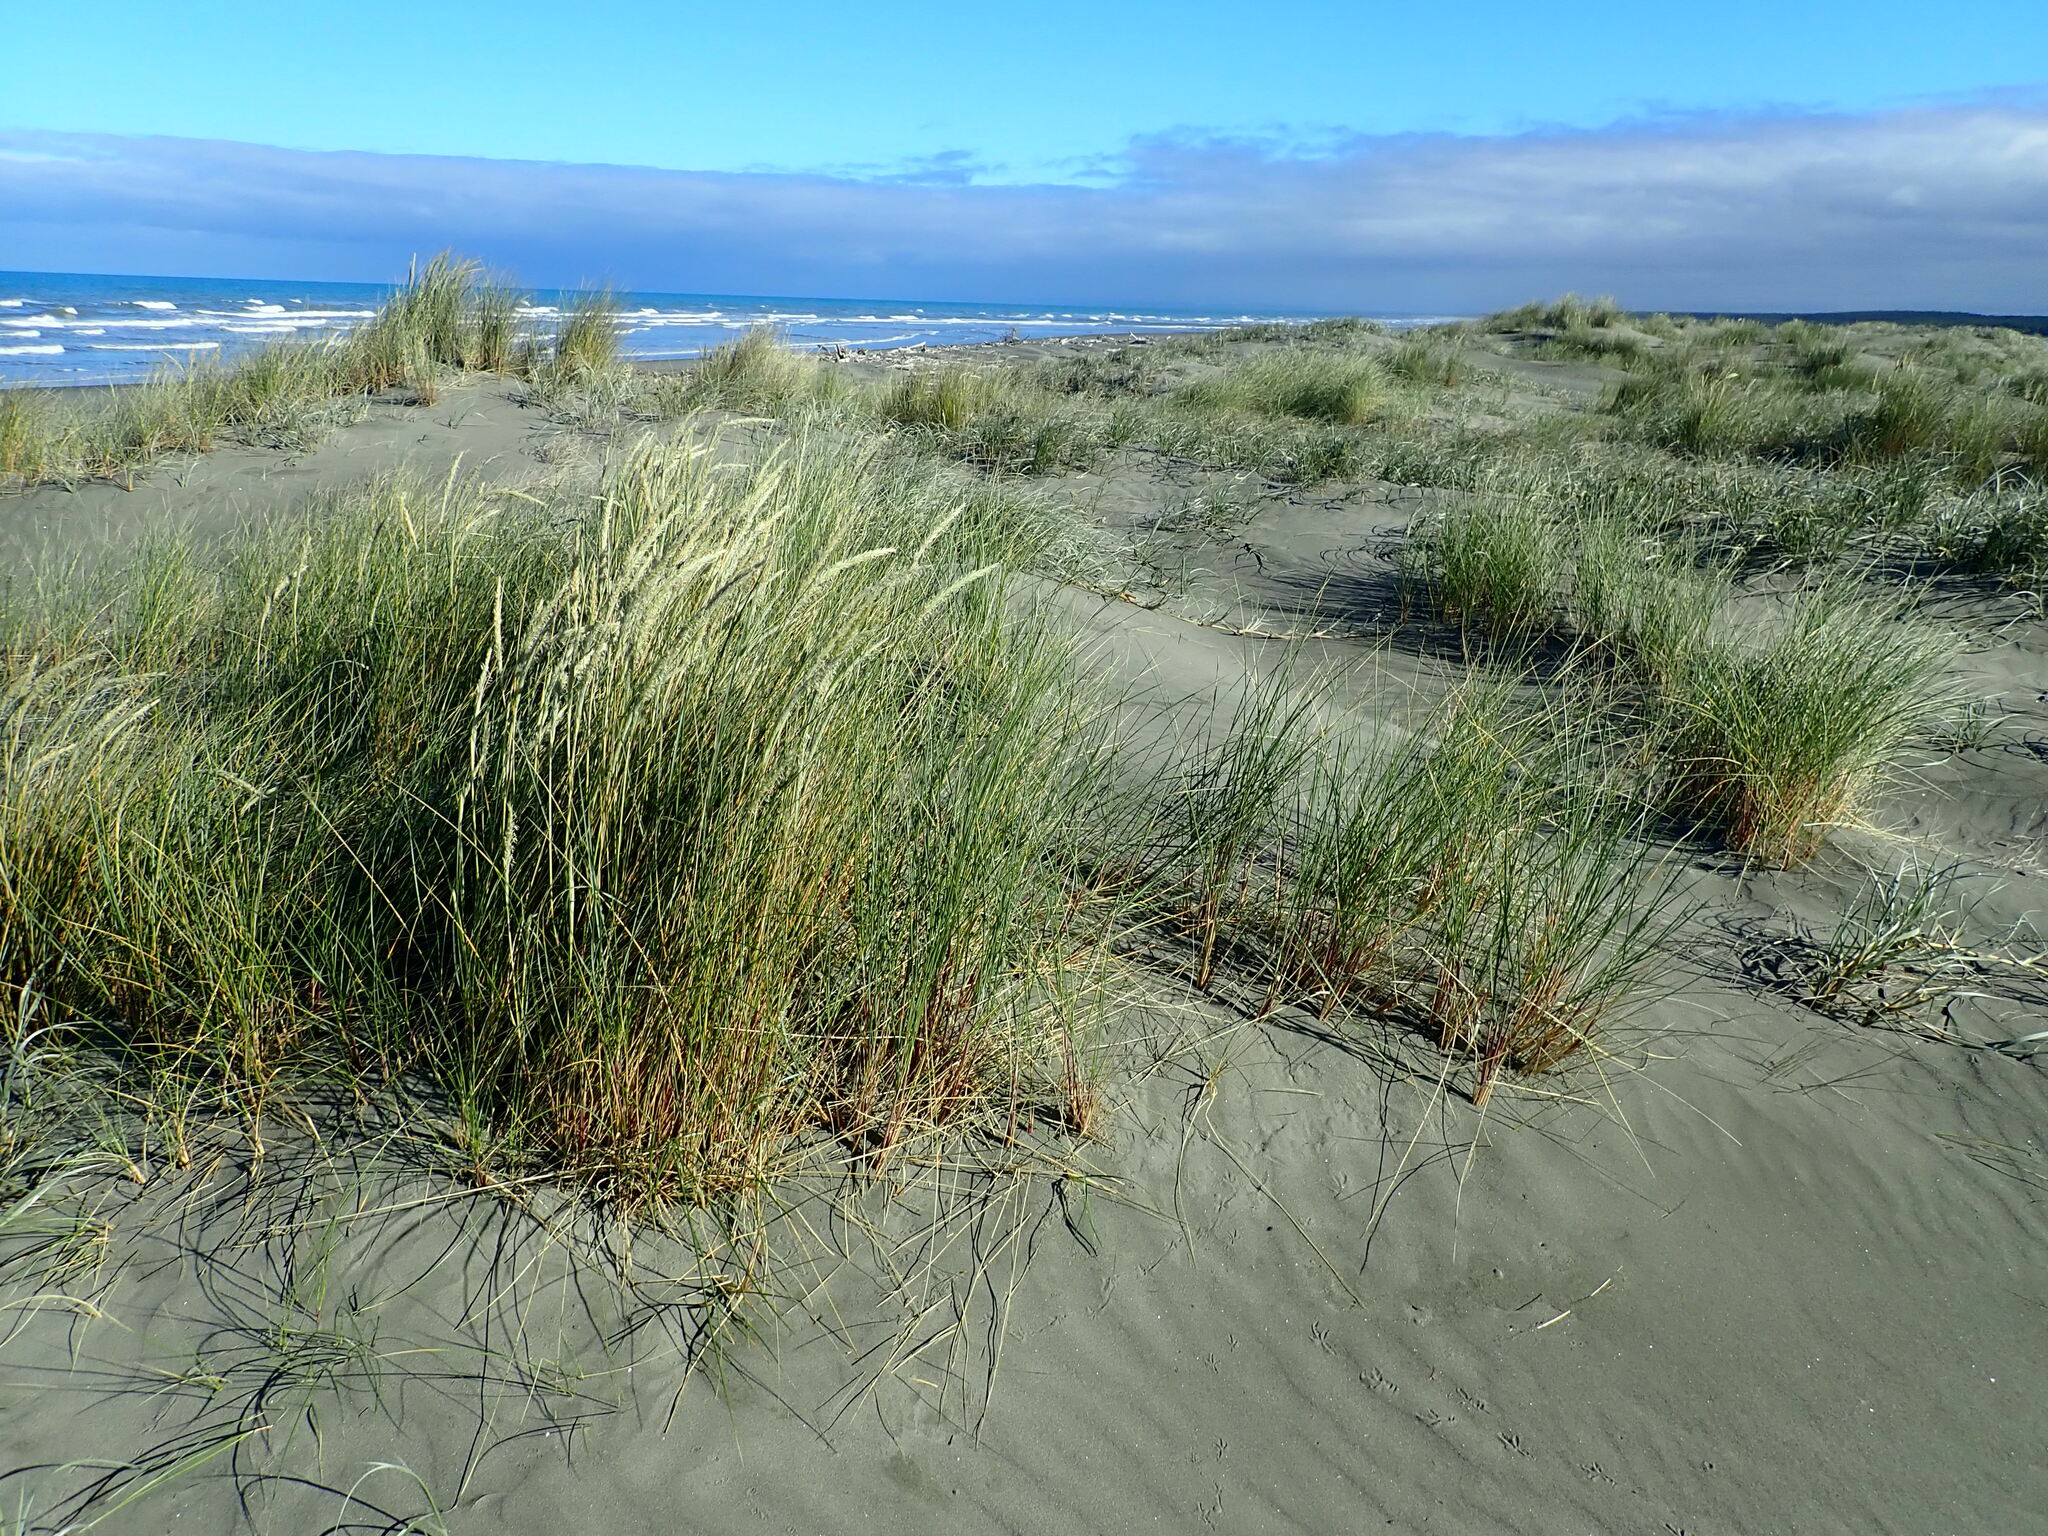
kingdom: Plantae
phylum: Tracheophyta
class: Liliopsida
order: Poales
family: Poaceae
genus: Calamagrostis
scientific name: Calamagrostis arenaria
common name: European beachgrass
